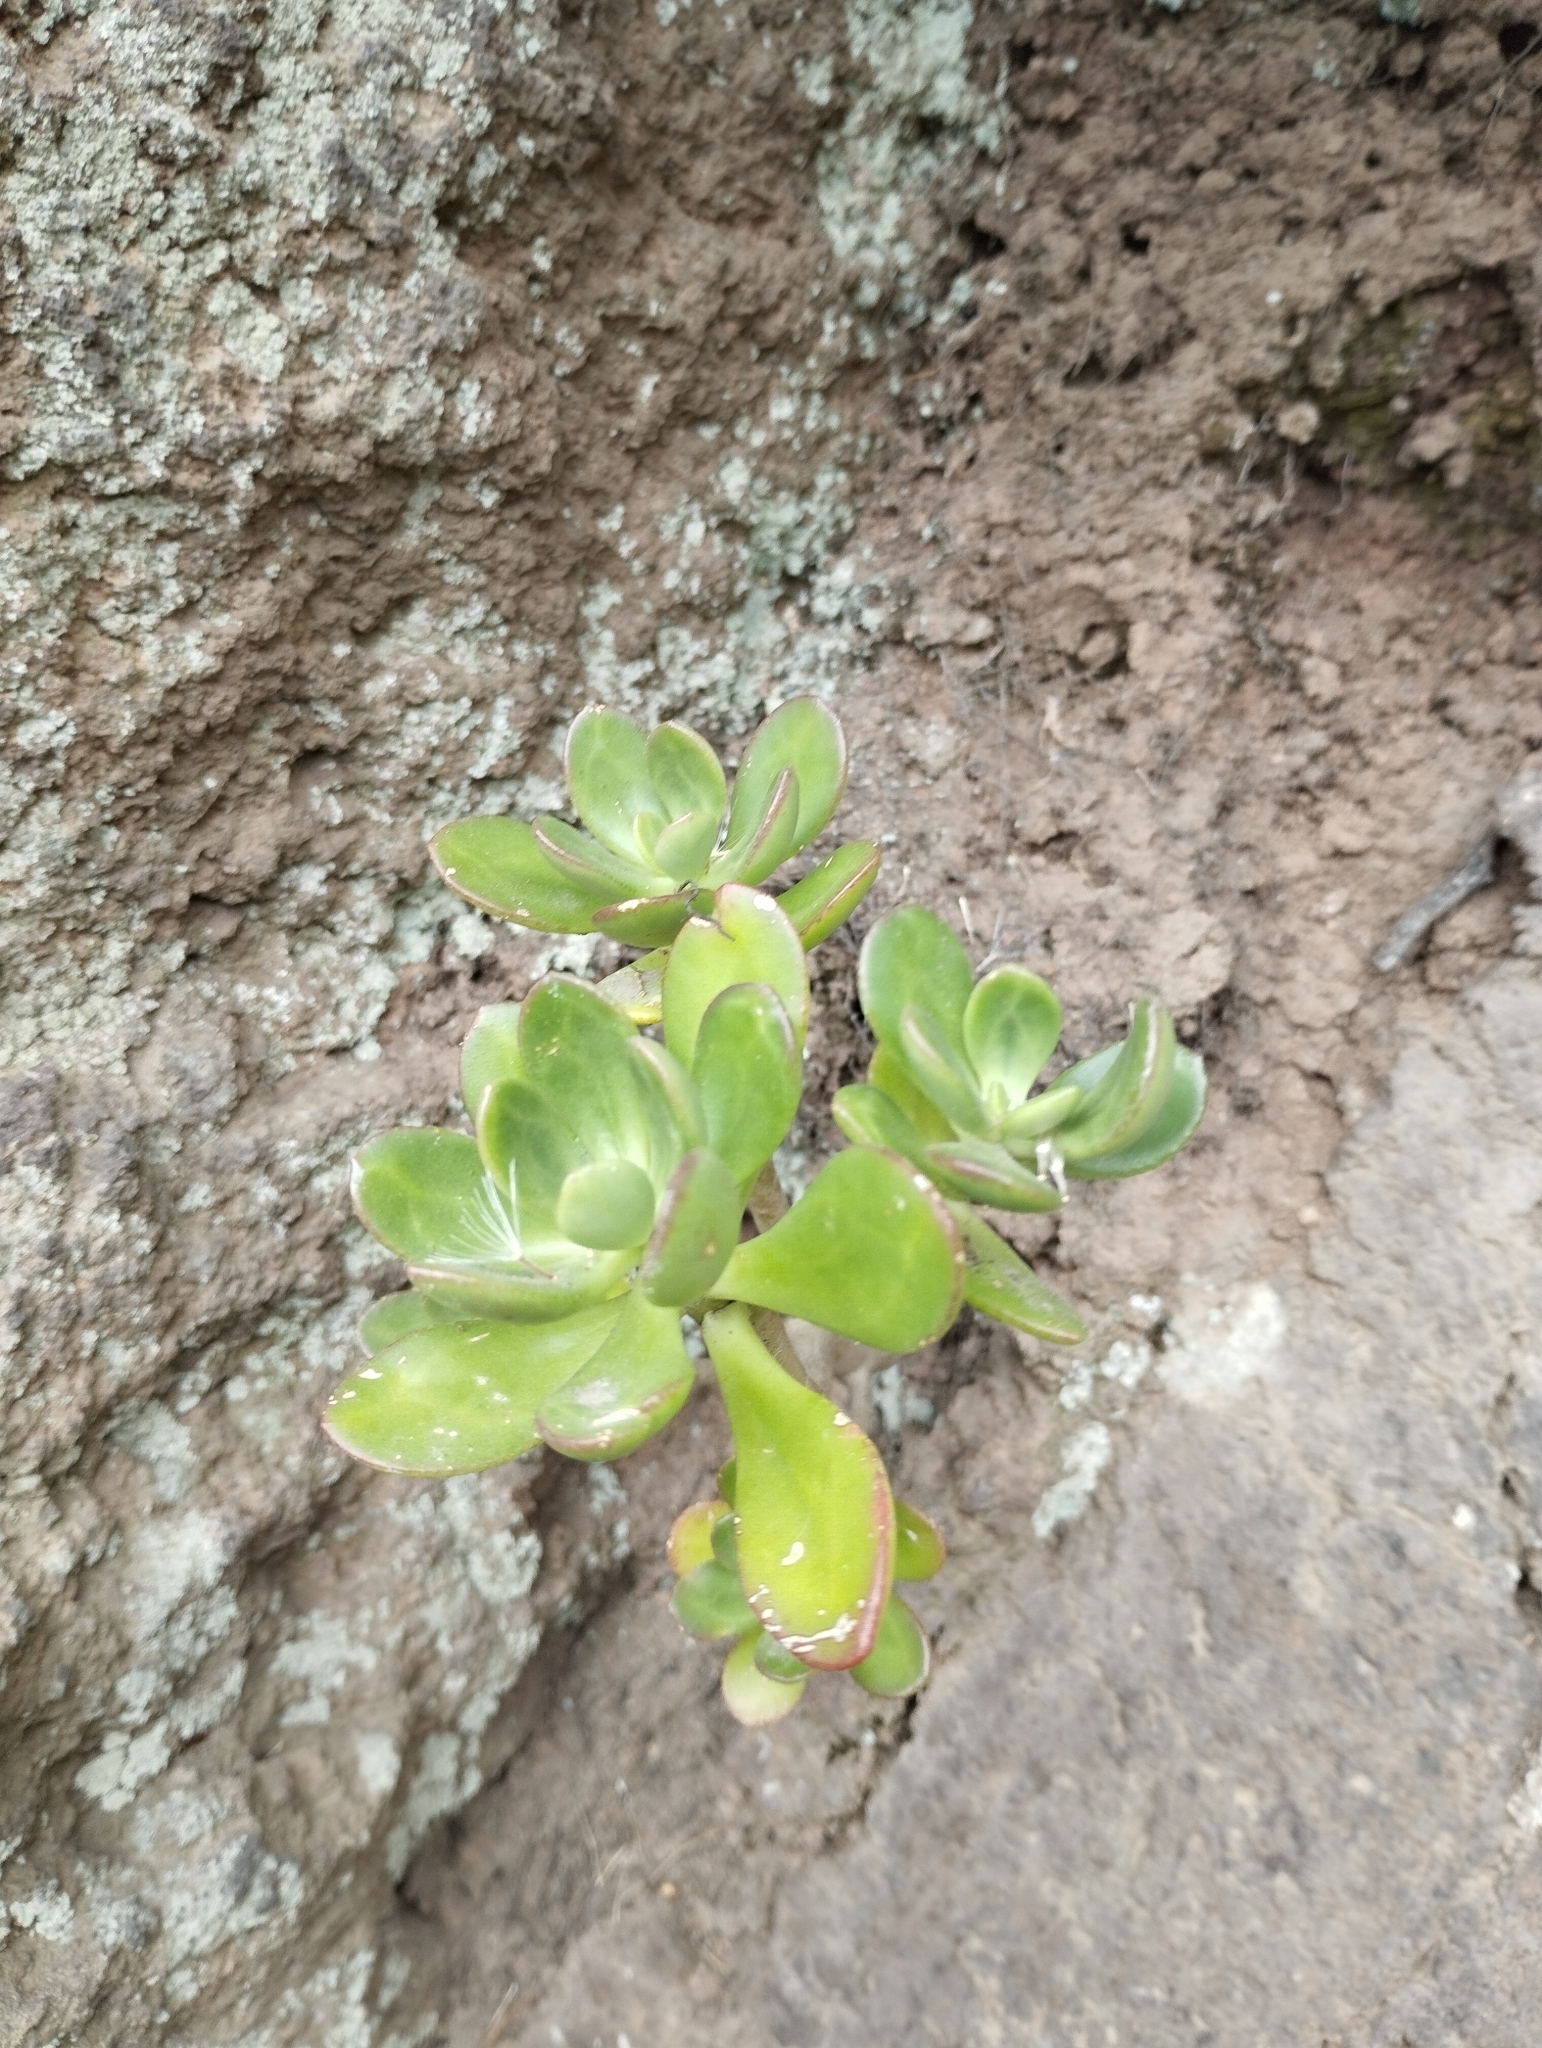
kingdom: Plantae
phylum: Tracheophyta
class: Magnoliopsida
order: Saxifragales
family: Crassulaceae
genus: Sedum
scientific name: Sedum dendroideum
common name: Tree stonecrop
